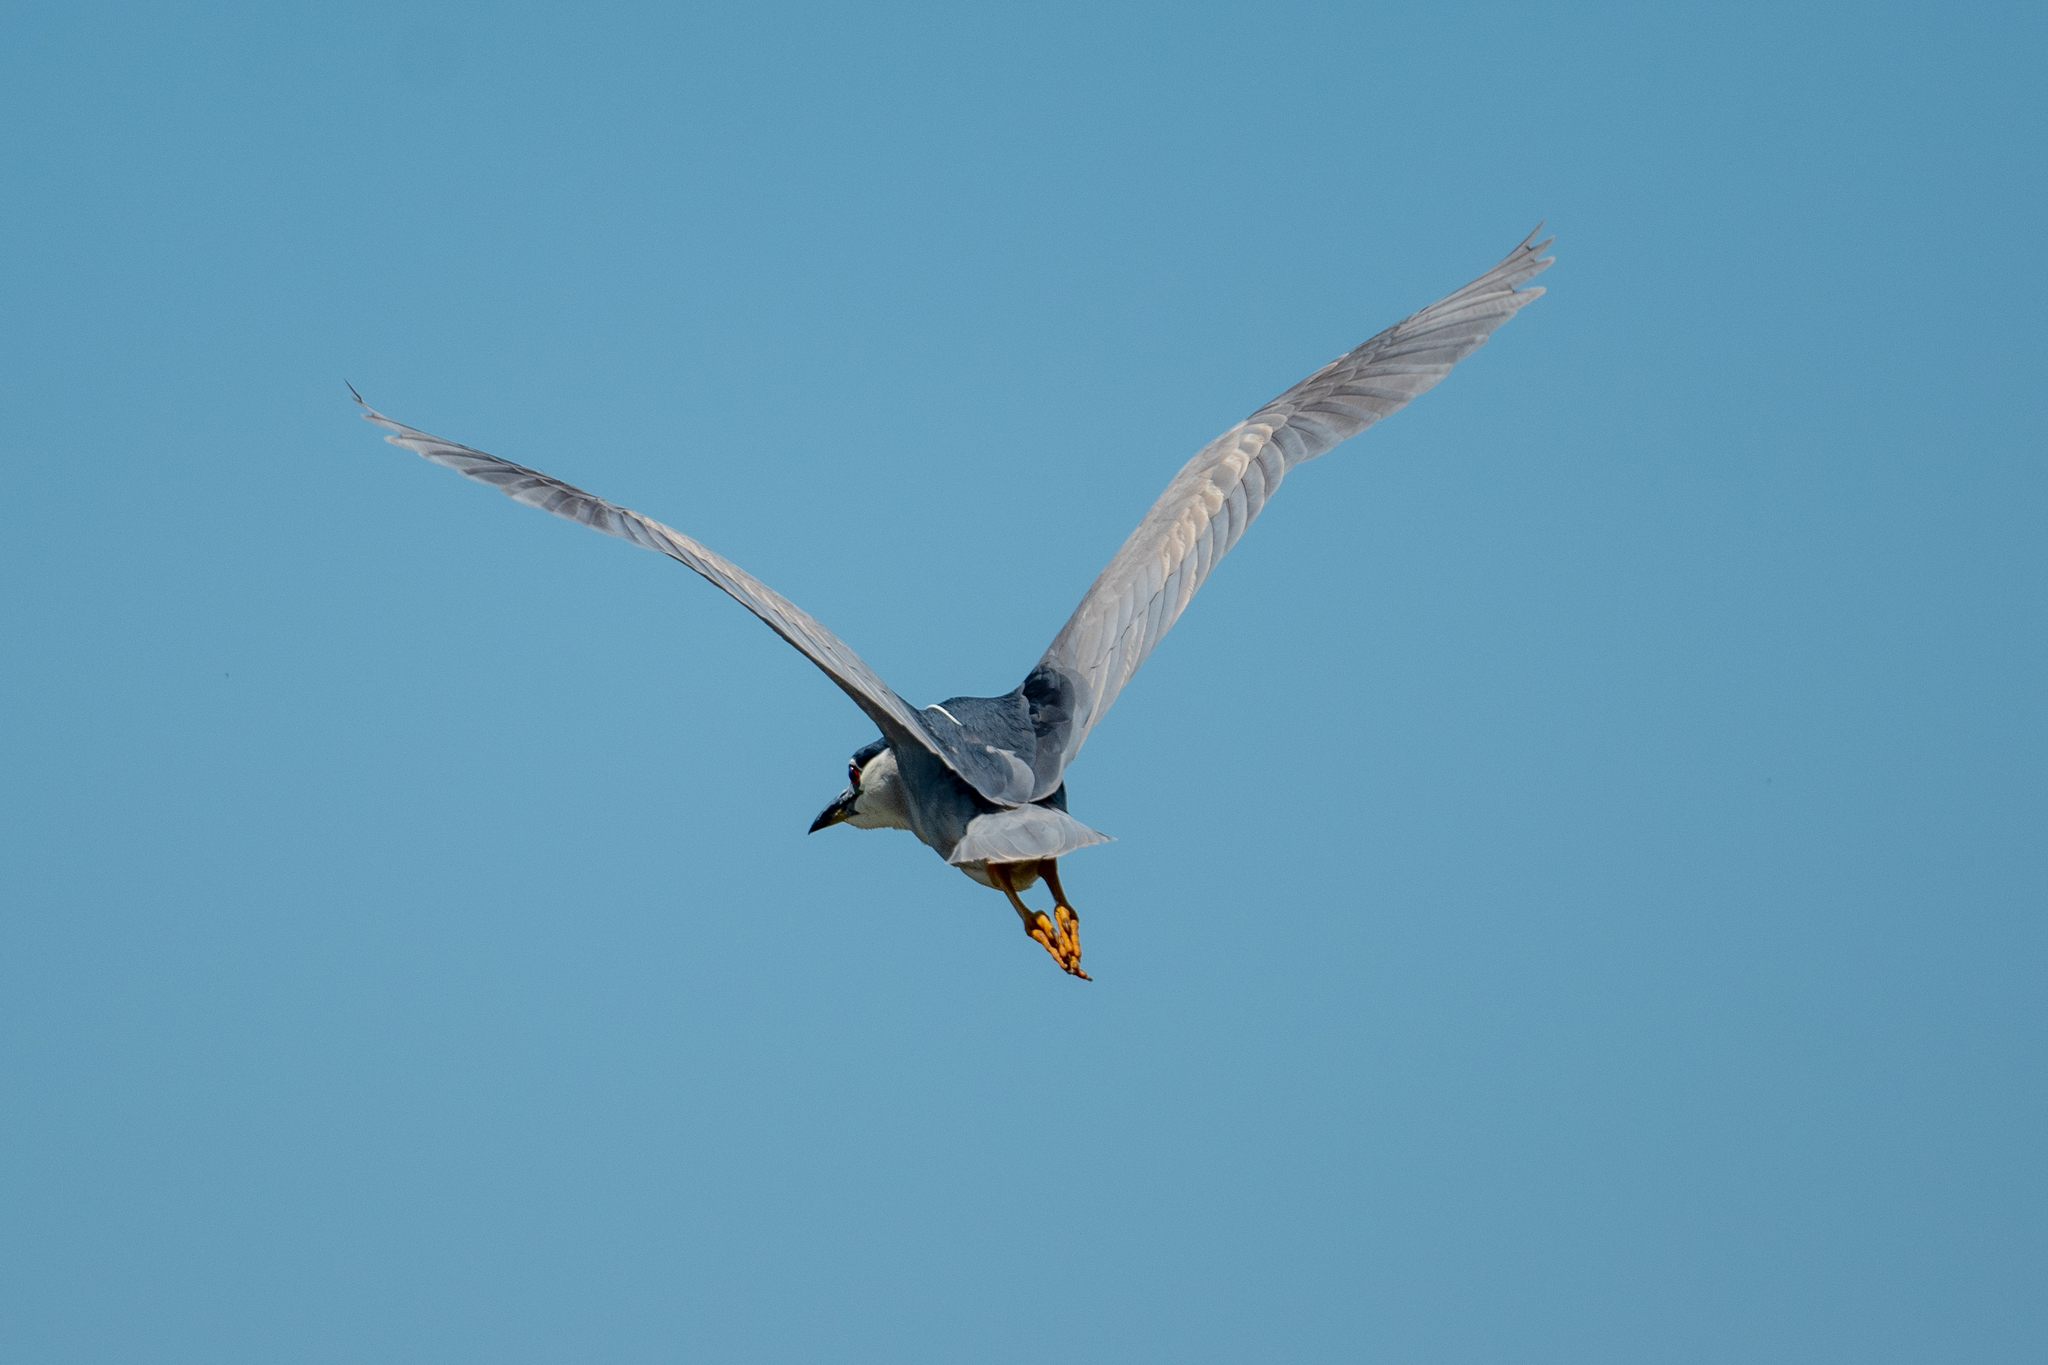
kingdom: Animalia
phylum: Chordata
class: Aves
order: Pelecaniformes
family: Ardeidae
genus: Nycticorax
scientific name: Nycticorax nycticorax
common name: Black-crowned night heron
